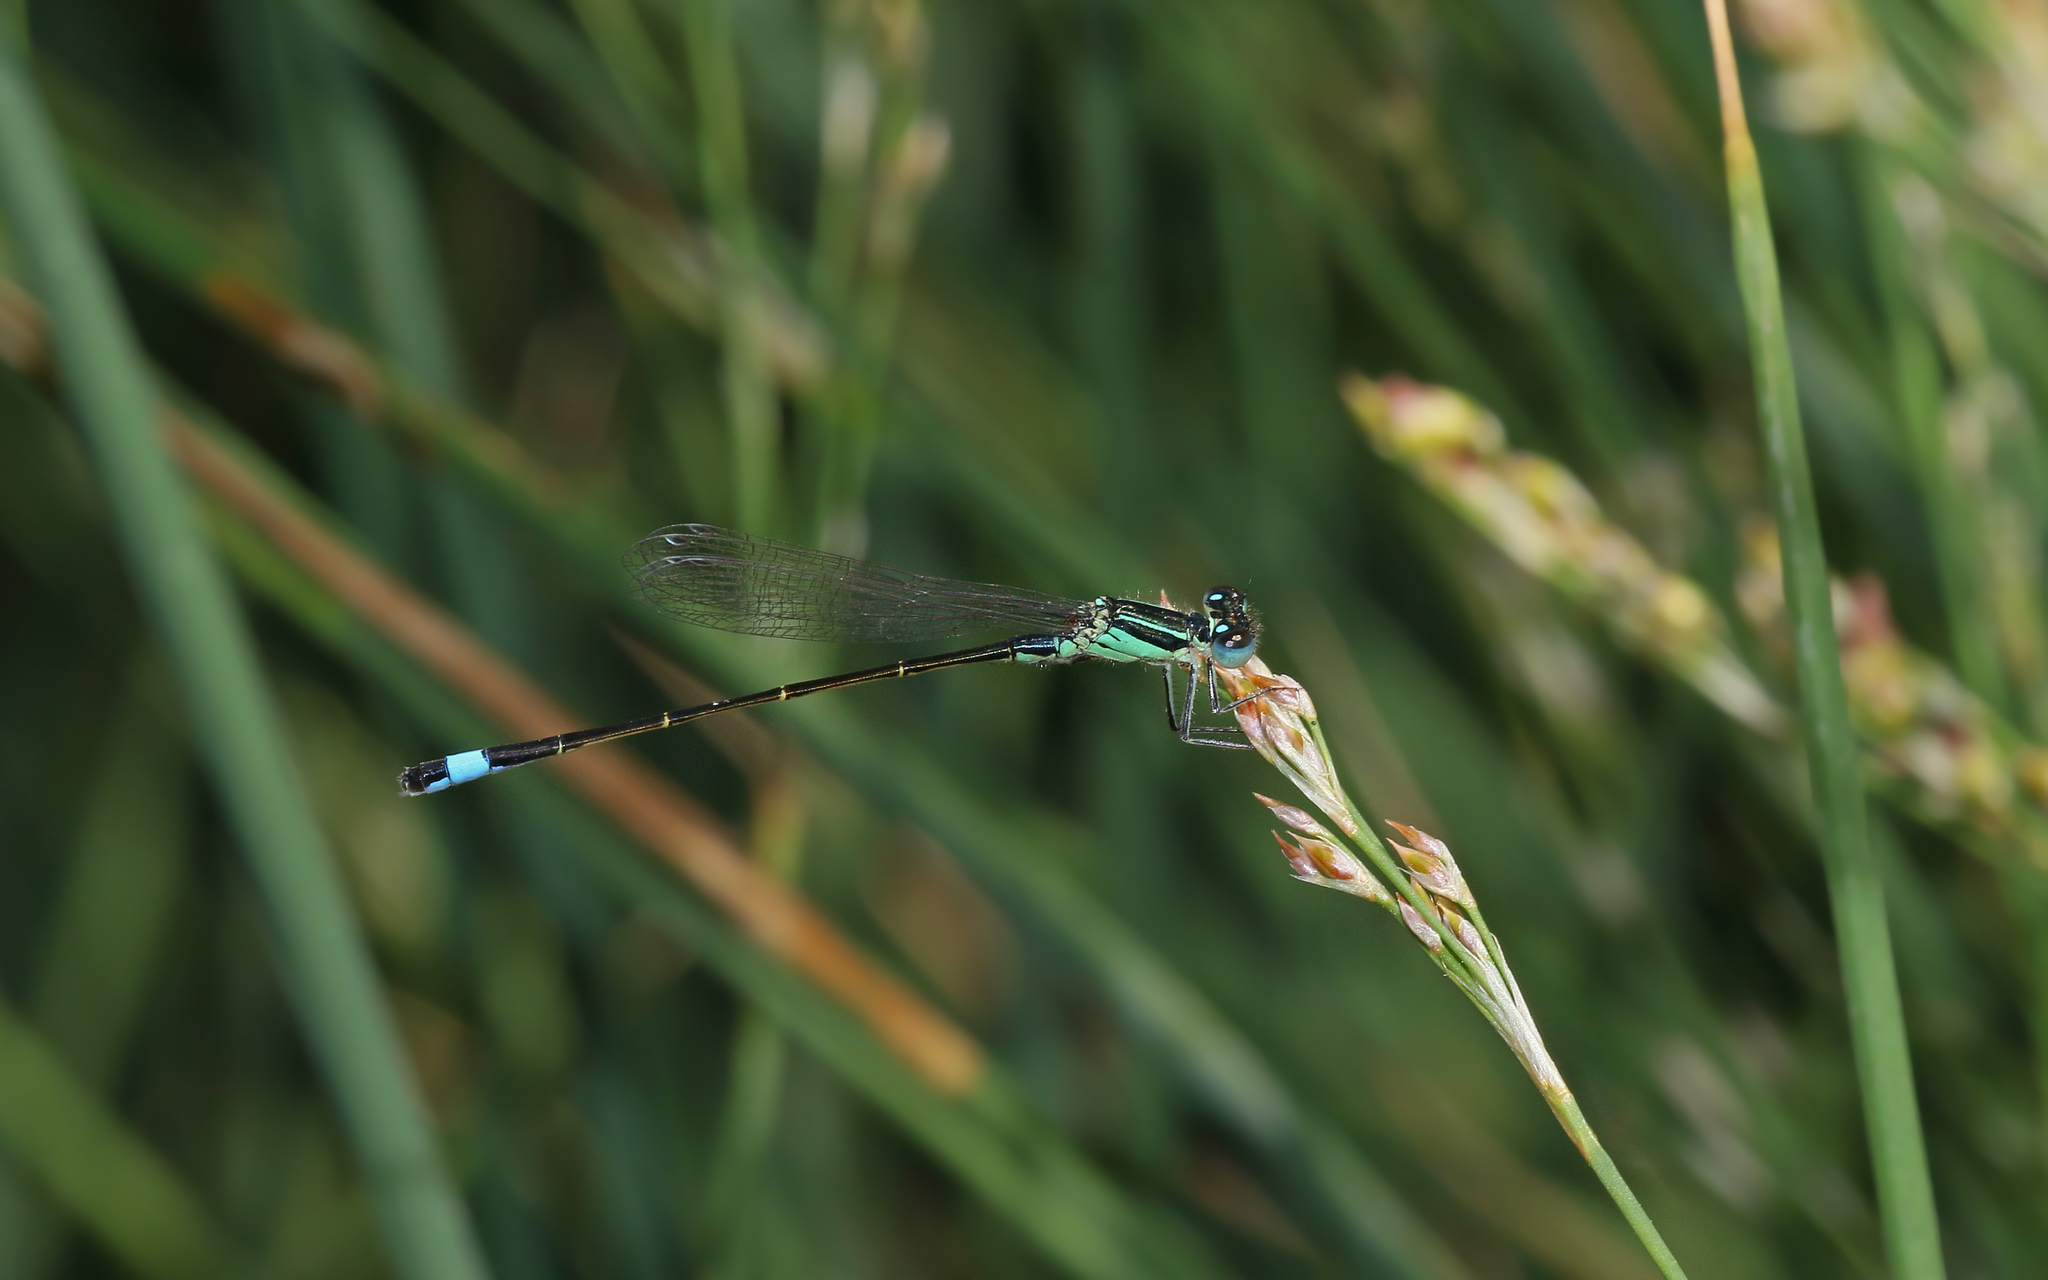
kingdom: Animalia
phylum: Arthropoda
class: Insecta
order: Odonata
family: Coenagrionidae
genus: Ischnura
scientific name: Ischnura elegans
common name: Blue-tailed damselfly
